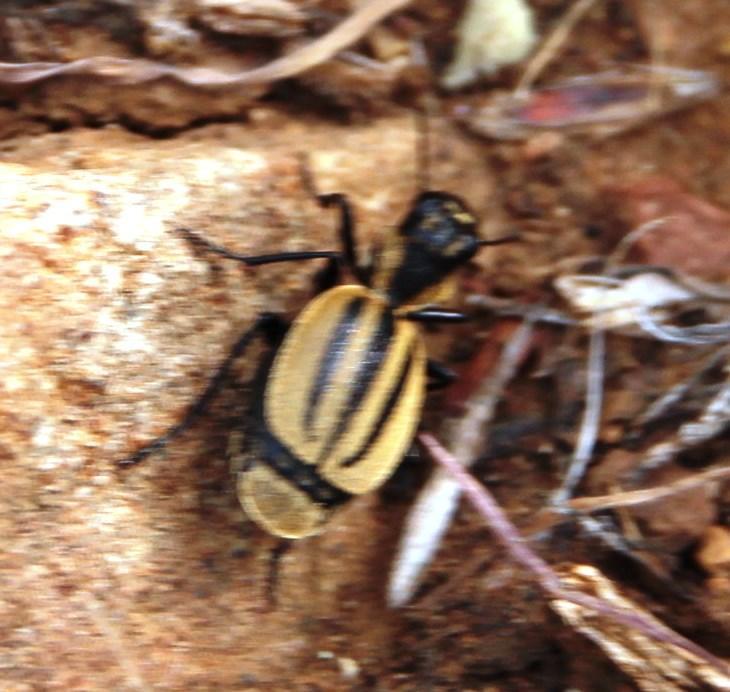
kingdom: Animalia
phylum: Arthropoda
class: Insecta
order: Coleoptera
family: Carabidae
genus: Graphipterus
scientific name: Graphipterus trilineatus
